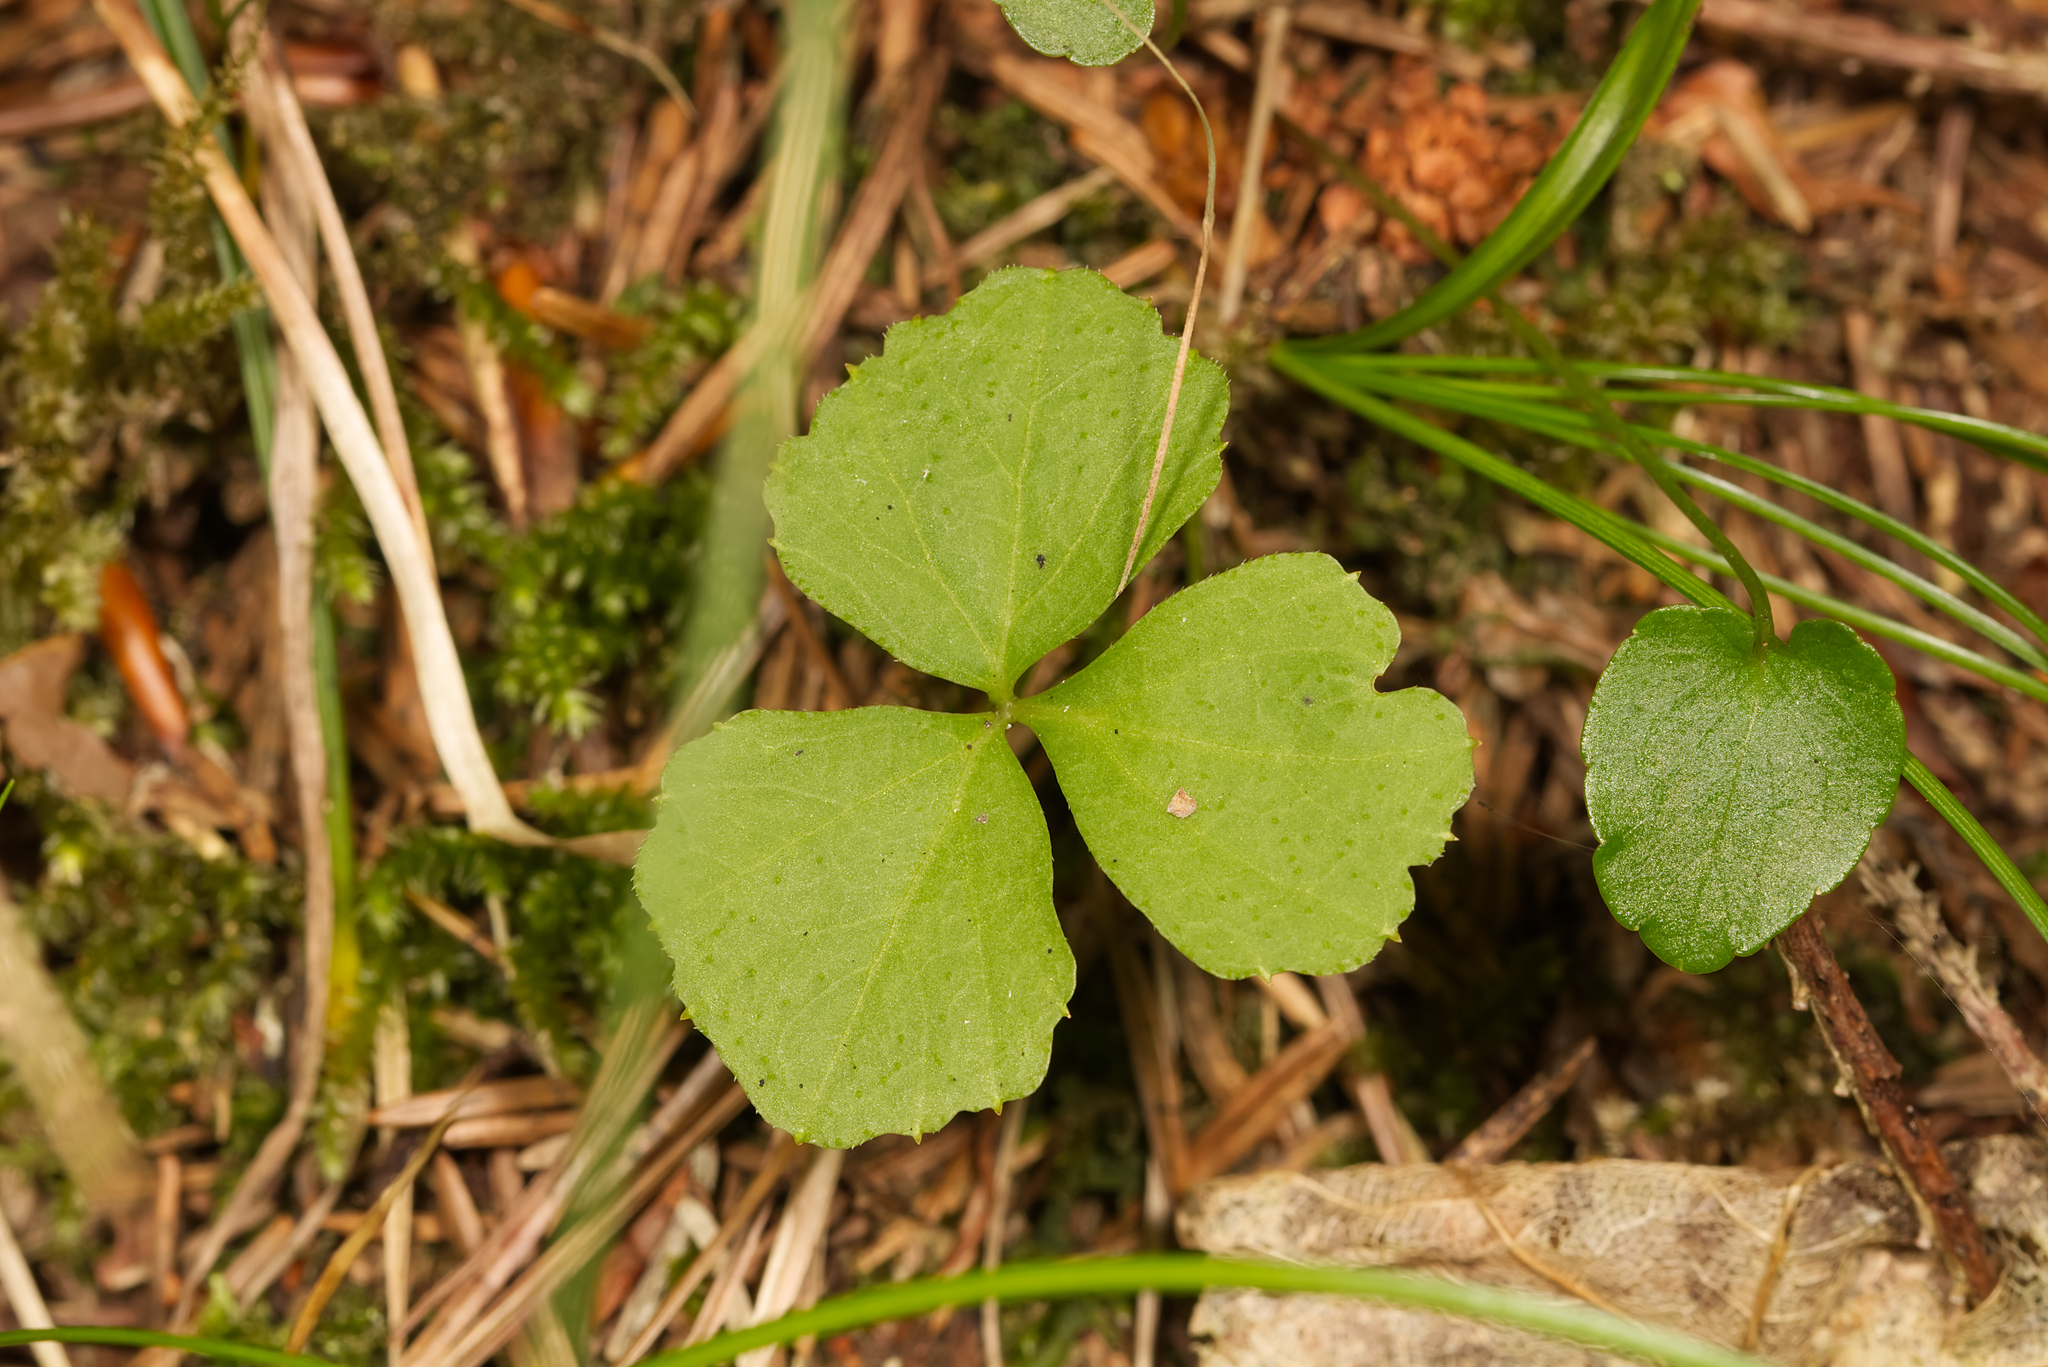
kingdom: Plantae
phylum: Tracheophyta
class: Magnoliopsida
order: Brassicales
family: Brassicaceae
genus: Cardamine
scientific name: Cardamine trifolia
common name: Trefoil cress
